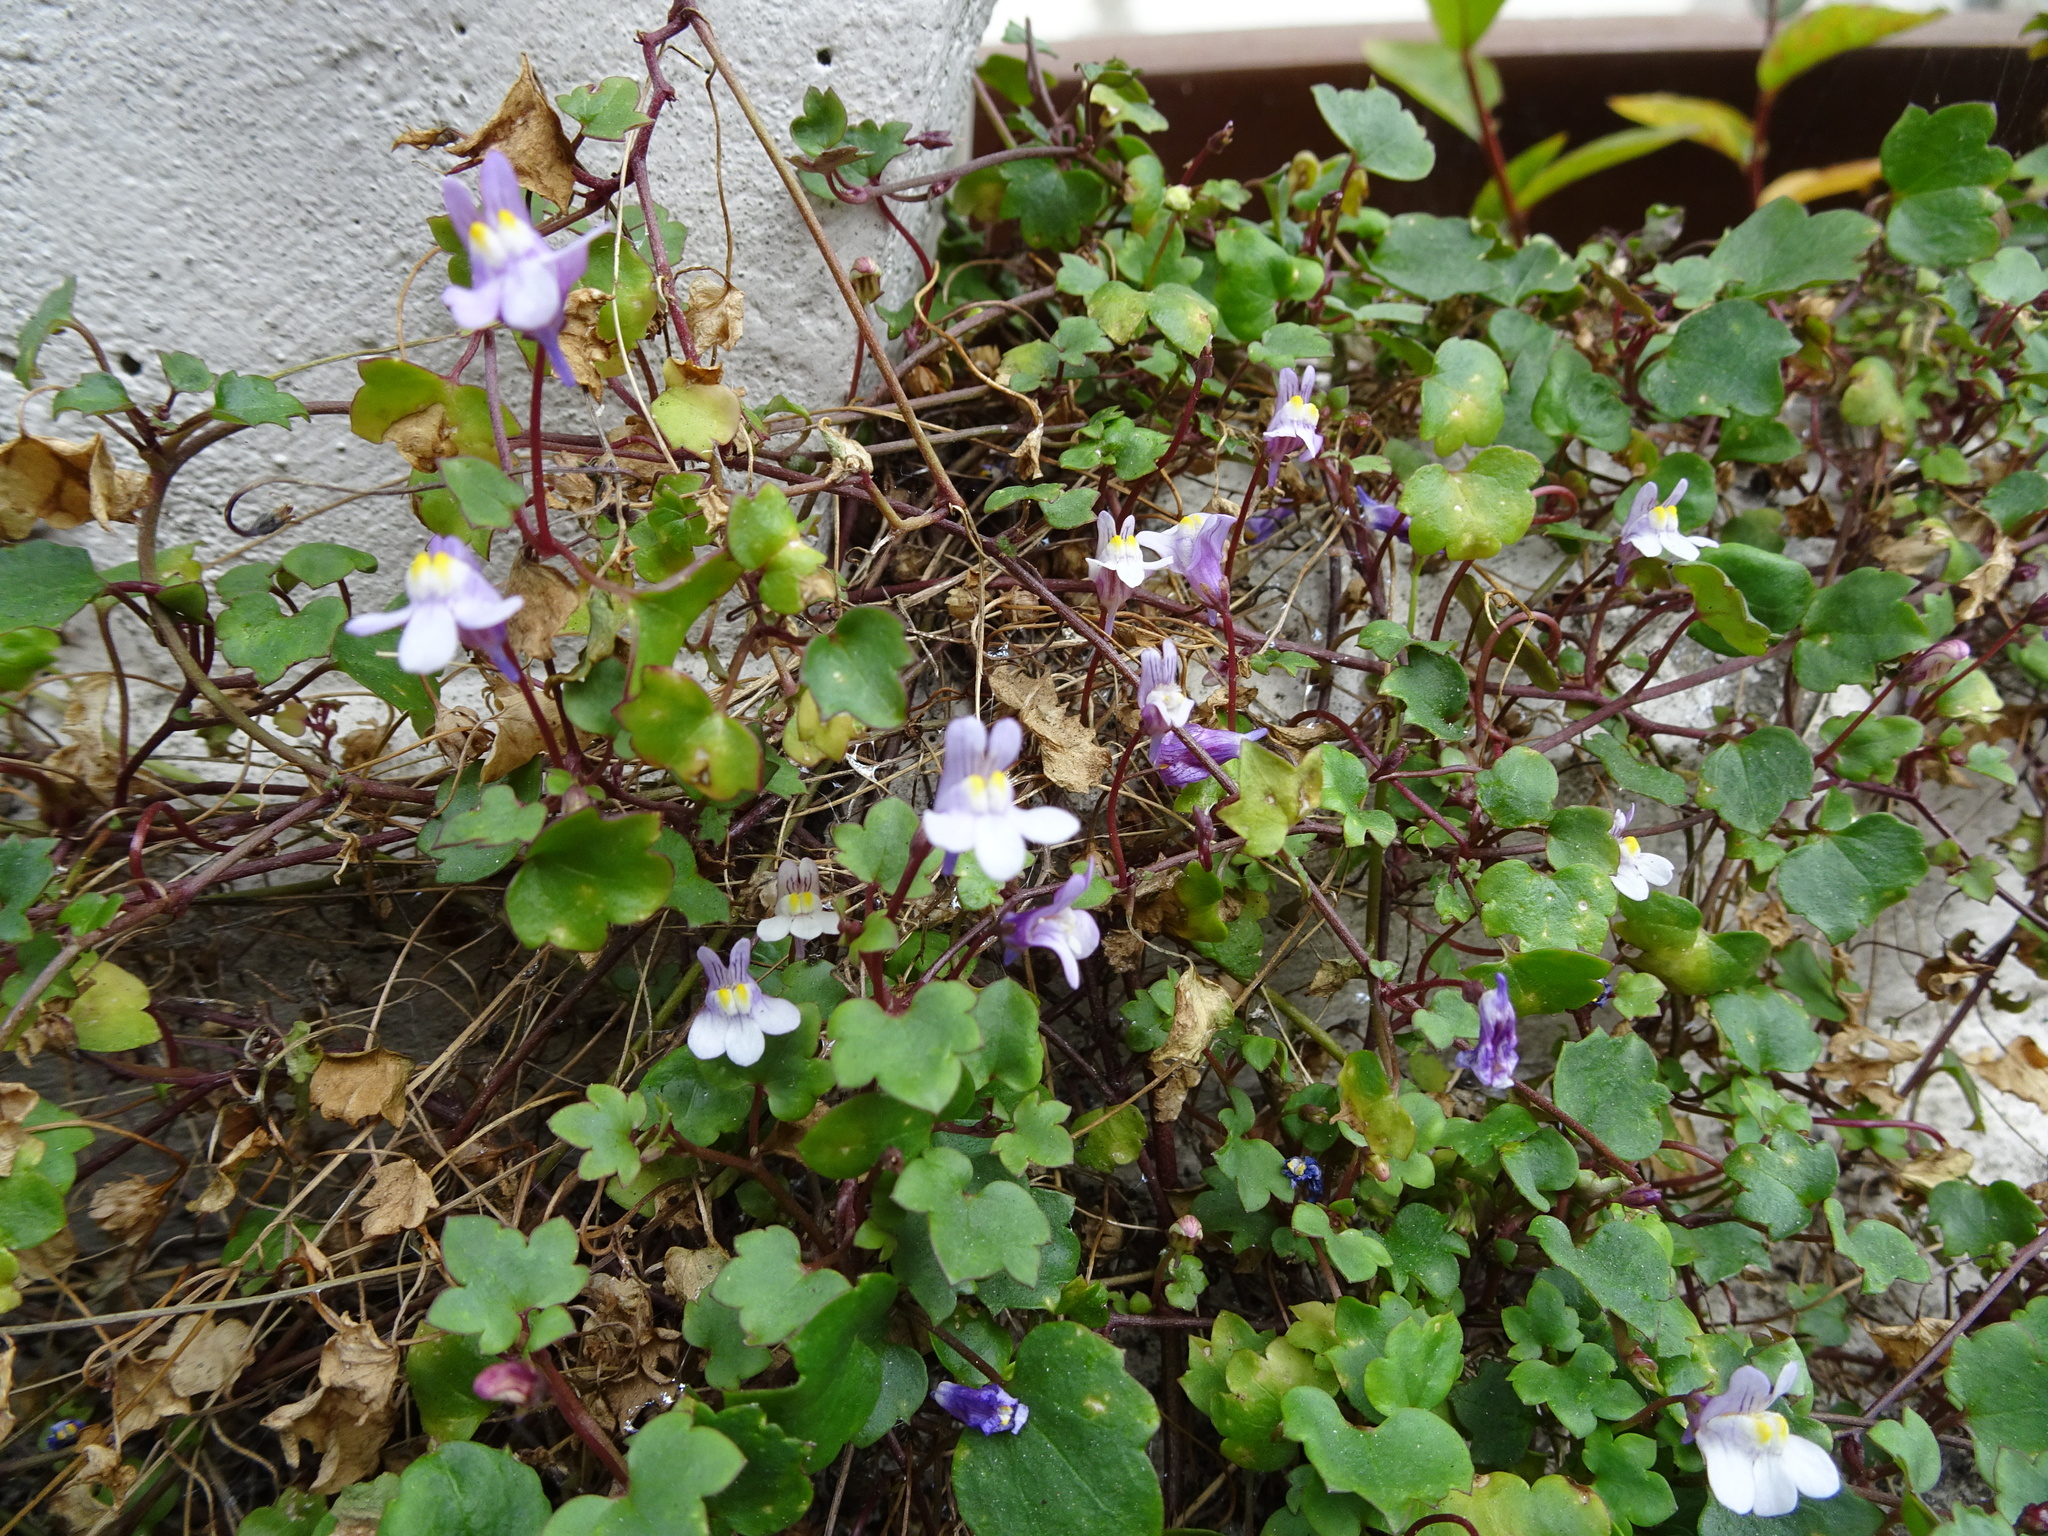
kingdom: Plantae
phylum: Tracheophyta
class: Magnoliopsida
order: Lamiales
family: Plantaginaceae
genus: Cymbalaria
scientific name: Cymbalaria muralis
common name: Ivy-leaved toadflax
